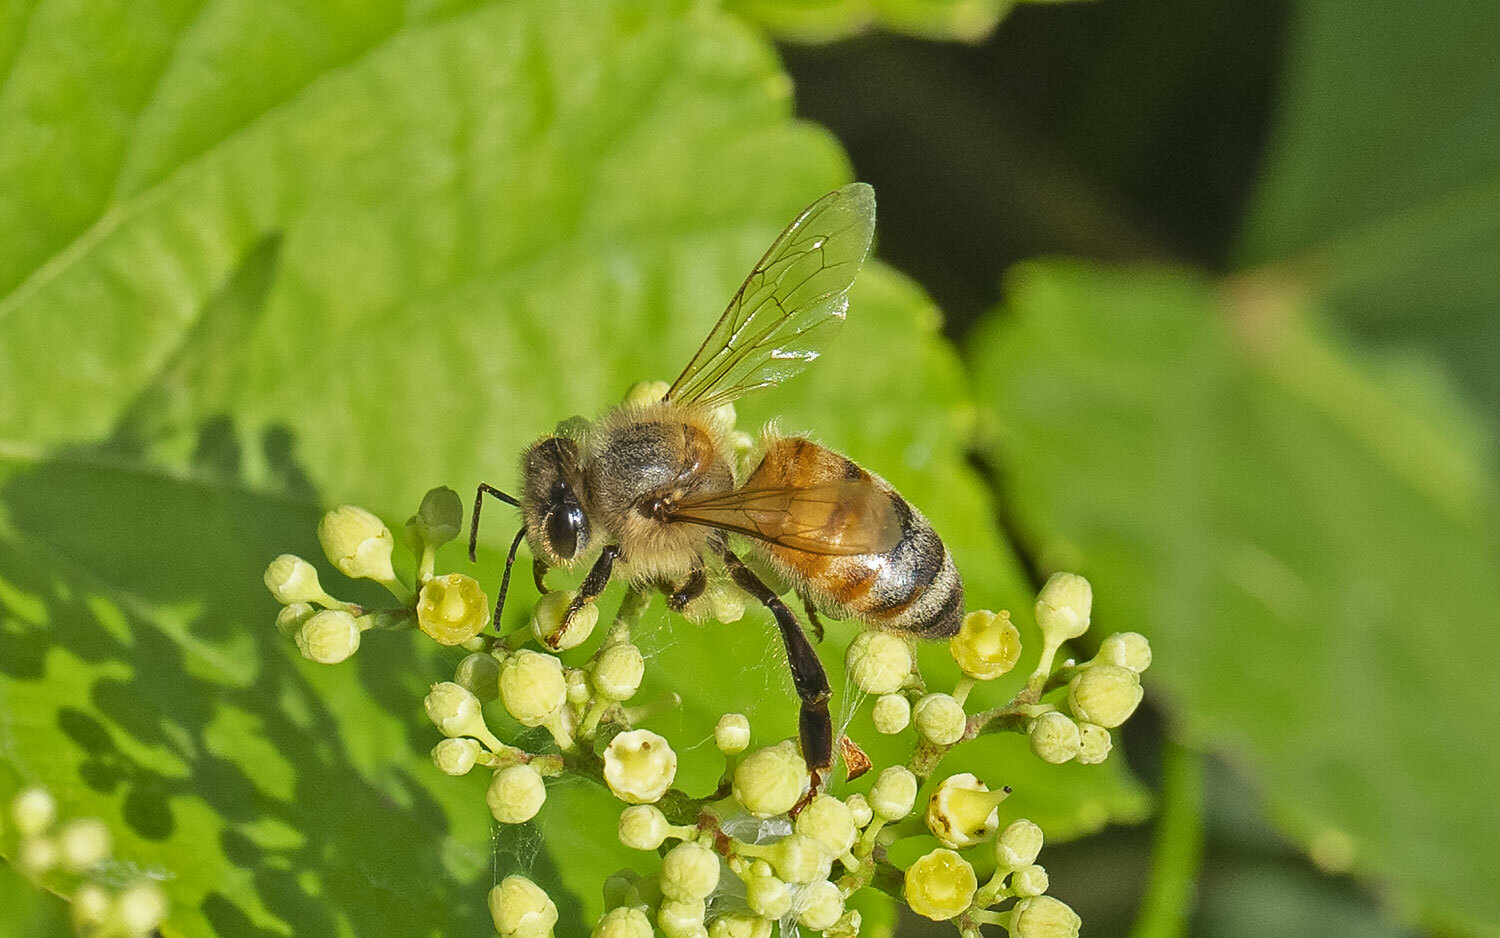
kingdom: Animalia
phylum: Arthropoda
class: Insecta
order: Hymenoptera
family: Apidae
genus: Apis
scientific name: Apis mellifera
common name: Honey bee
